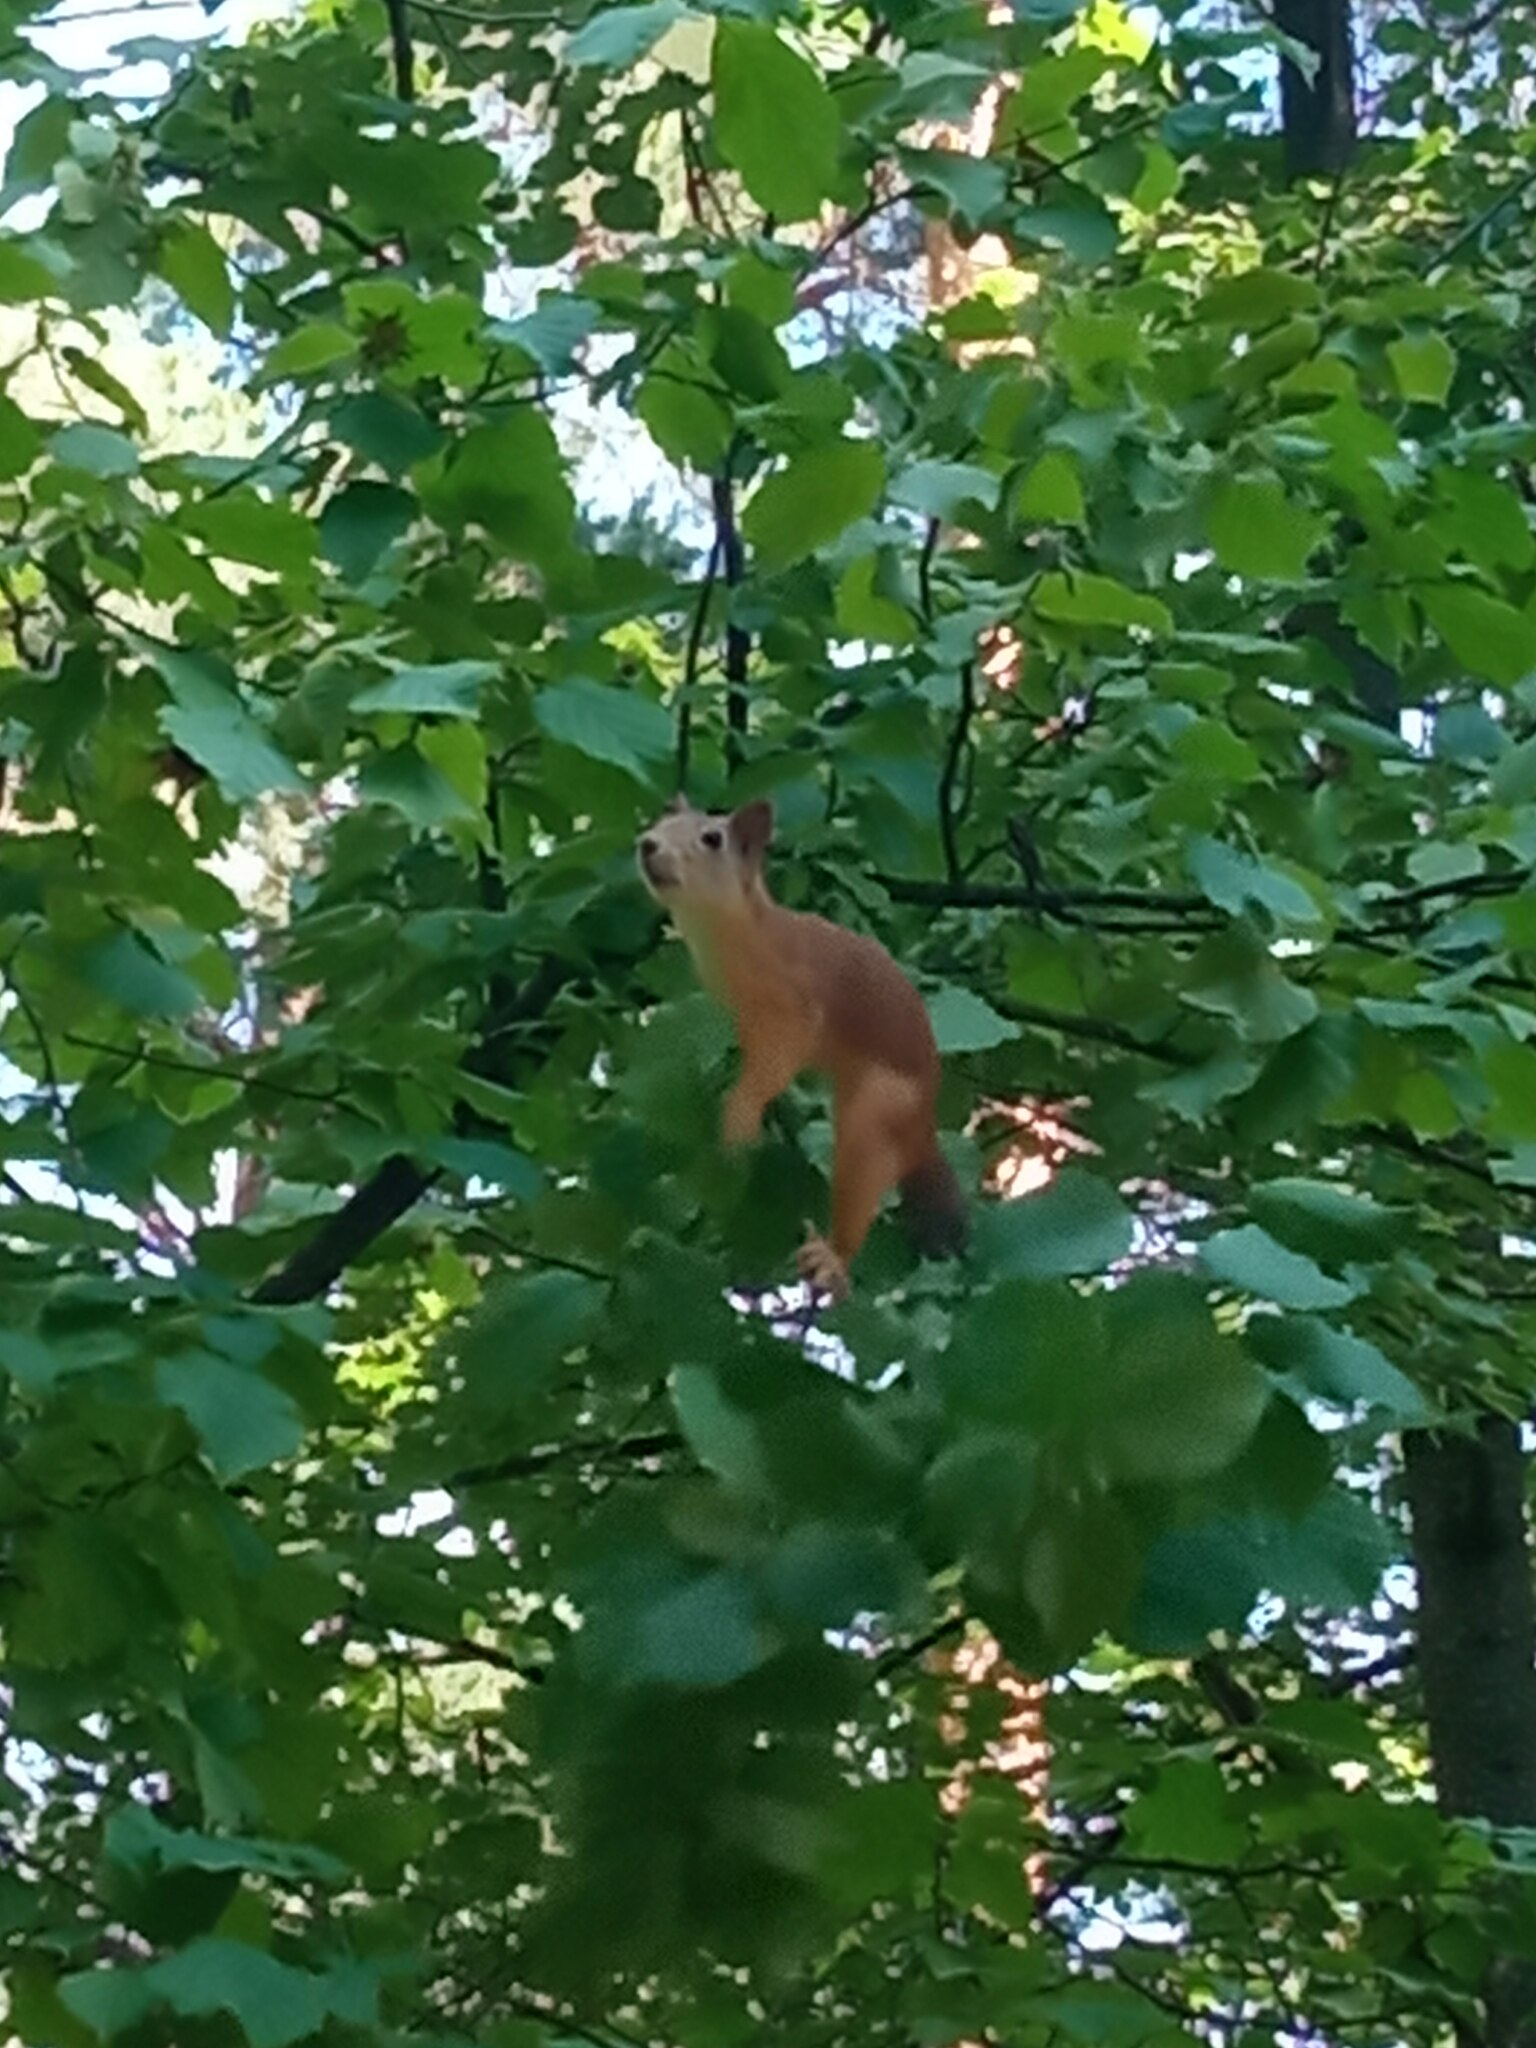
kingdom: Animalia
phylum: Chordata
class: Mammalia
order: Rodentia
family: Sciuridae
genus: Sciurus
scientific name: Sciurus vulgaris
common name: Eurasian red squirrel
